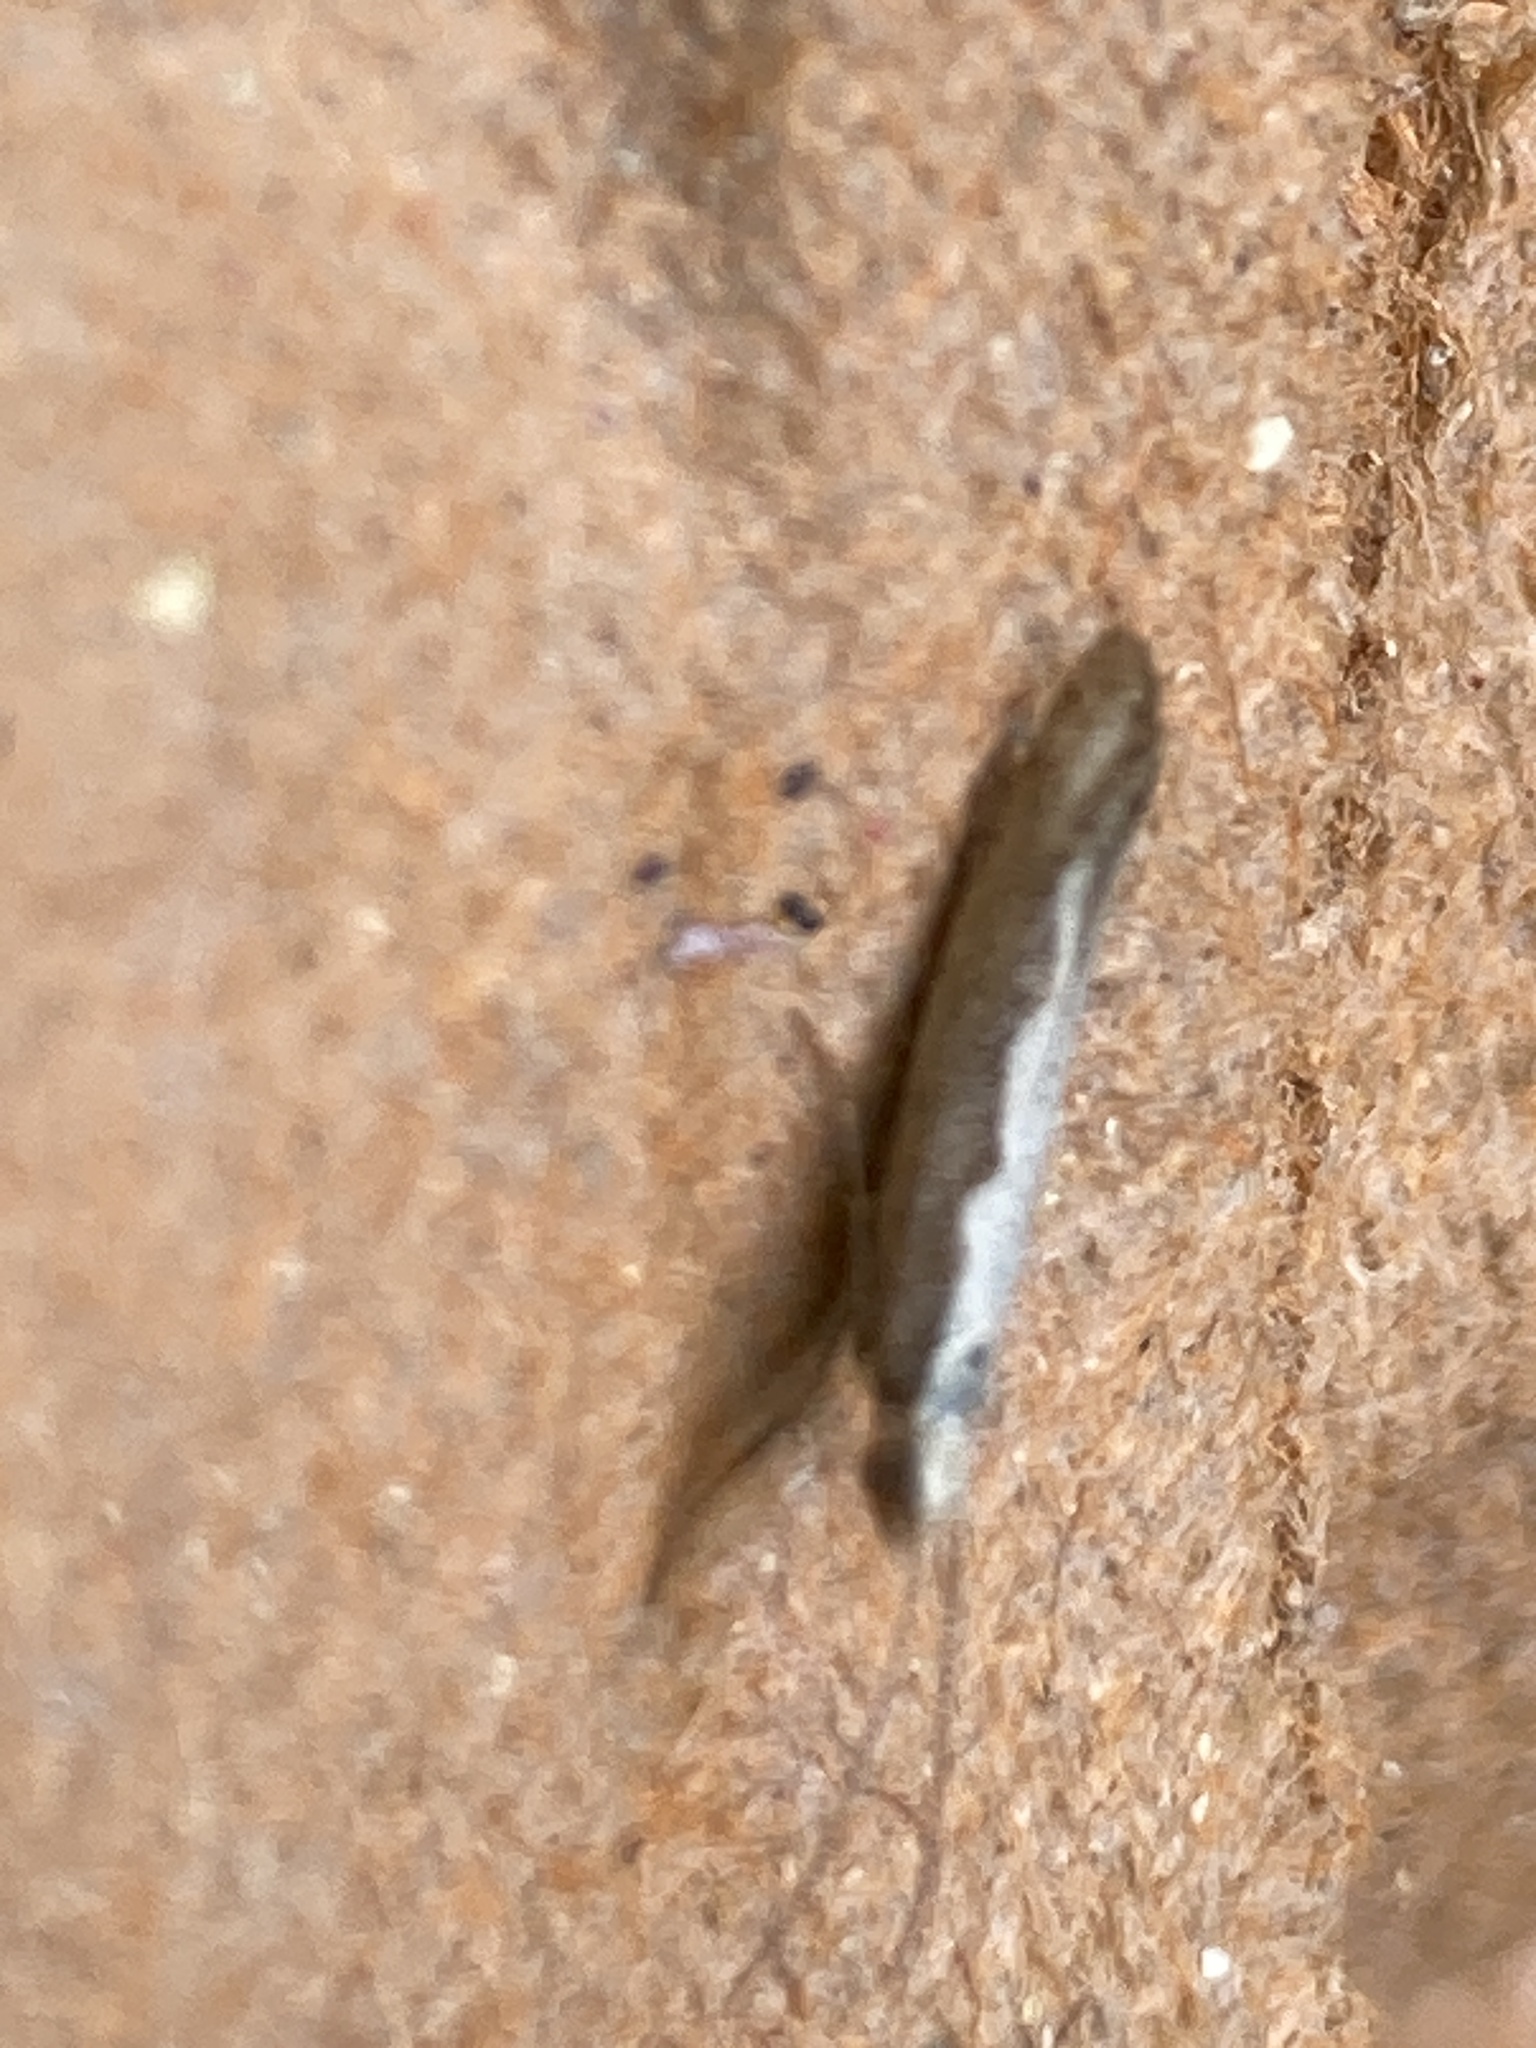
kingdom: Animalia
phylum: Arthropoda
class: Insecta
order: Lepidoptera
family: Plutellidae
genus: Plutella
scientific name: Plutella xylostella
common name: Diamond-back moth
